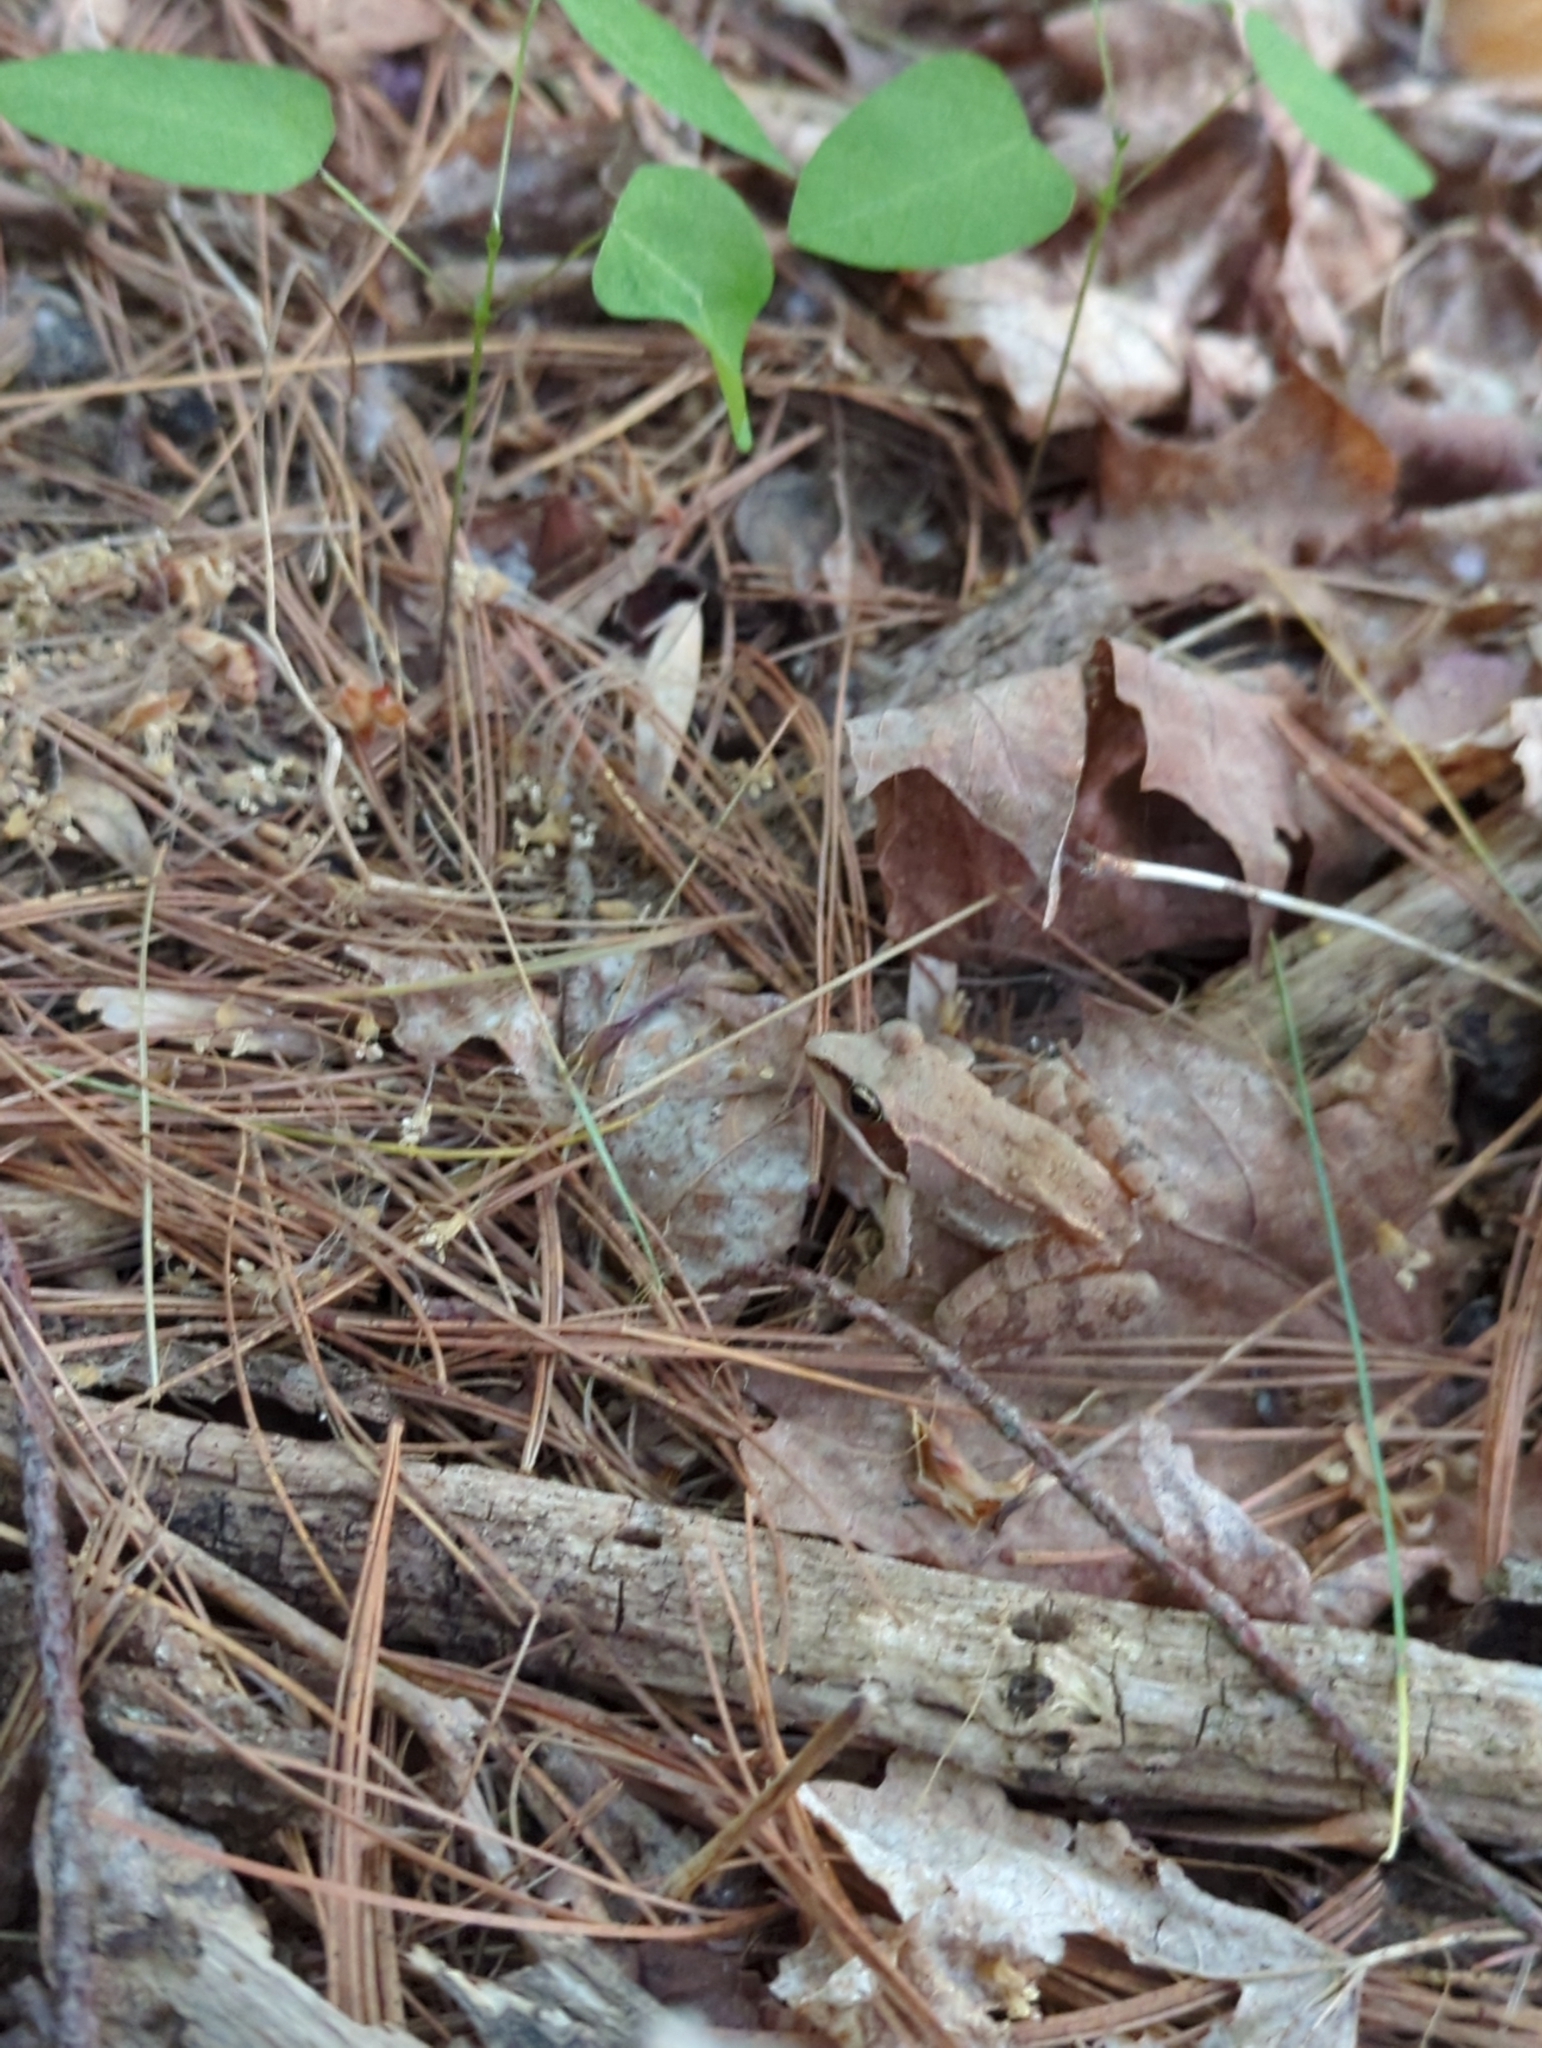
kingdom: Animalia
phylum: Chordata
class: Amphibia
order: Anura
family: Ranidae
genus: Lithobates
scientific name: Lithobates sylvaticus
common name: Wood frog
